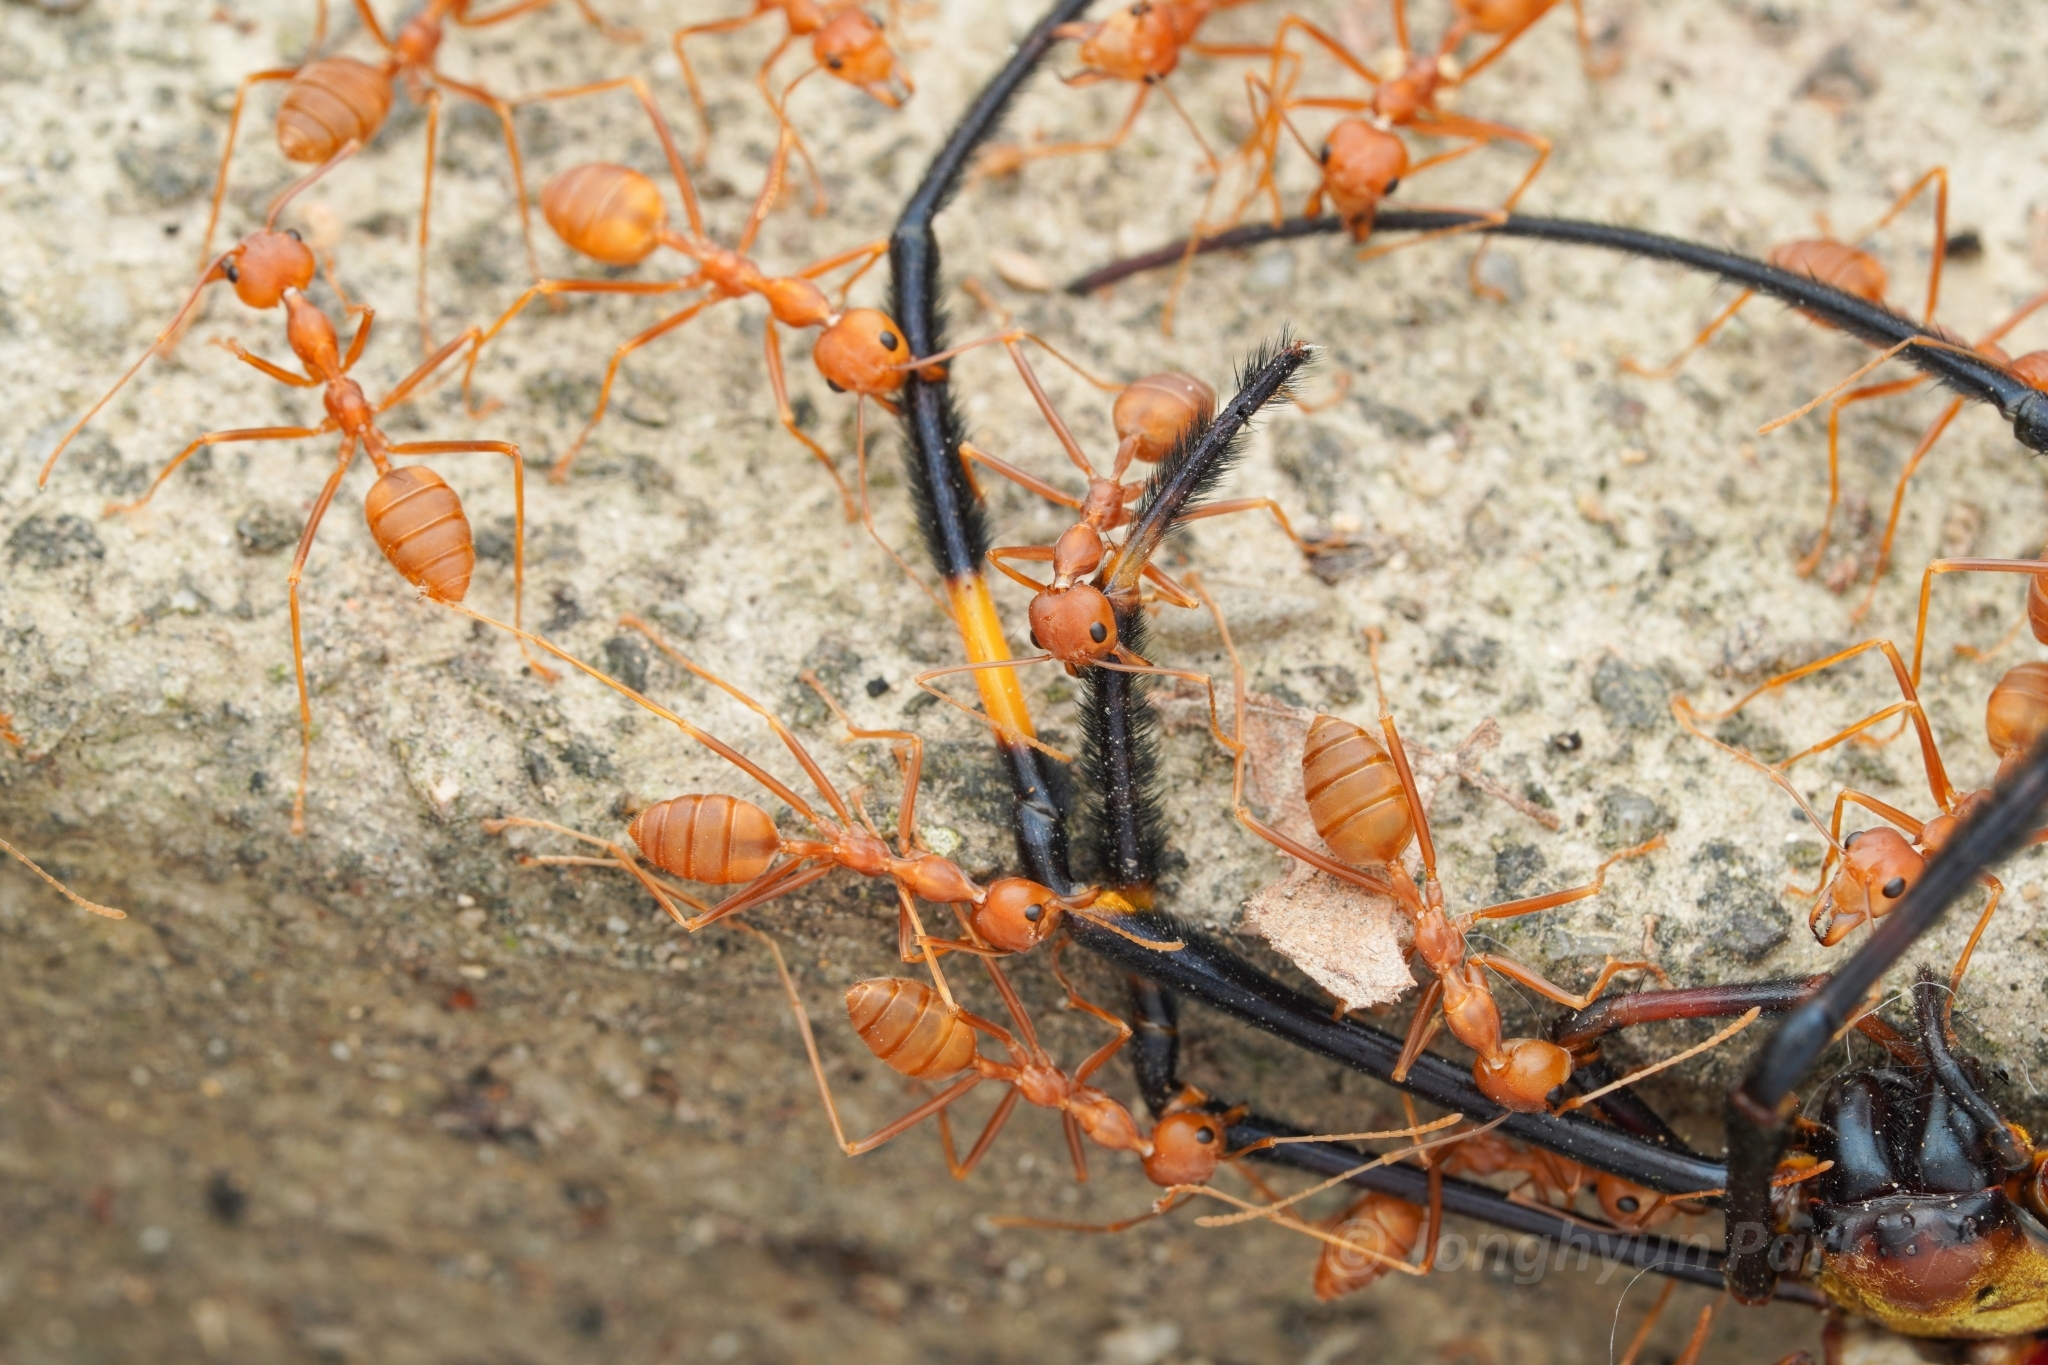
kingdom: Animalia
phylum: Arthropoda
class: Insecta
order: Hymenoptera
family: Formicidae
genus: Oecophylla
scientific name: Oecophylla smaragdina
